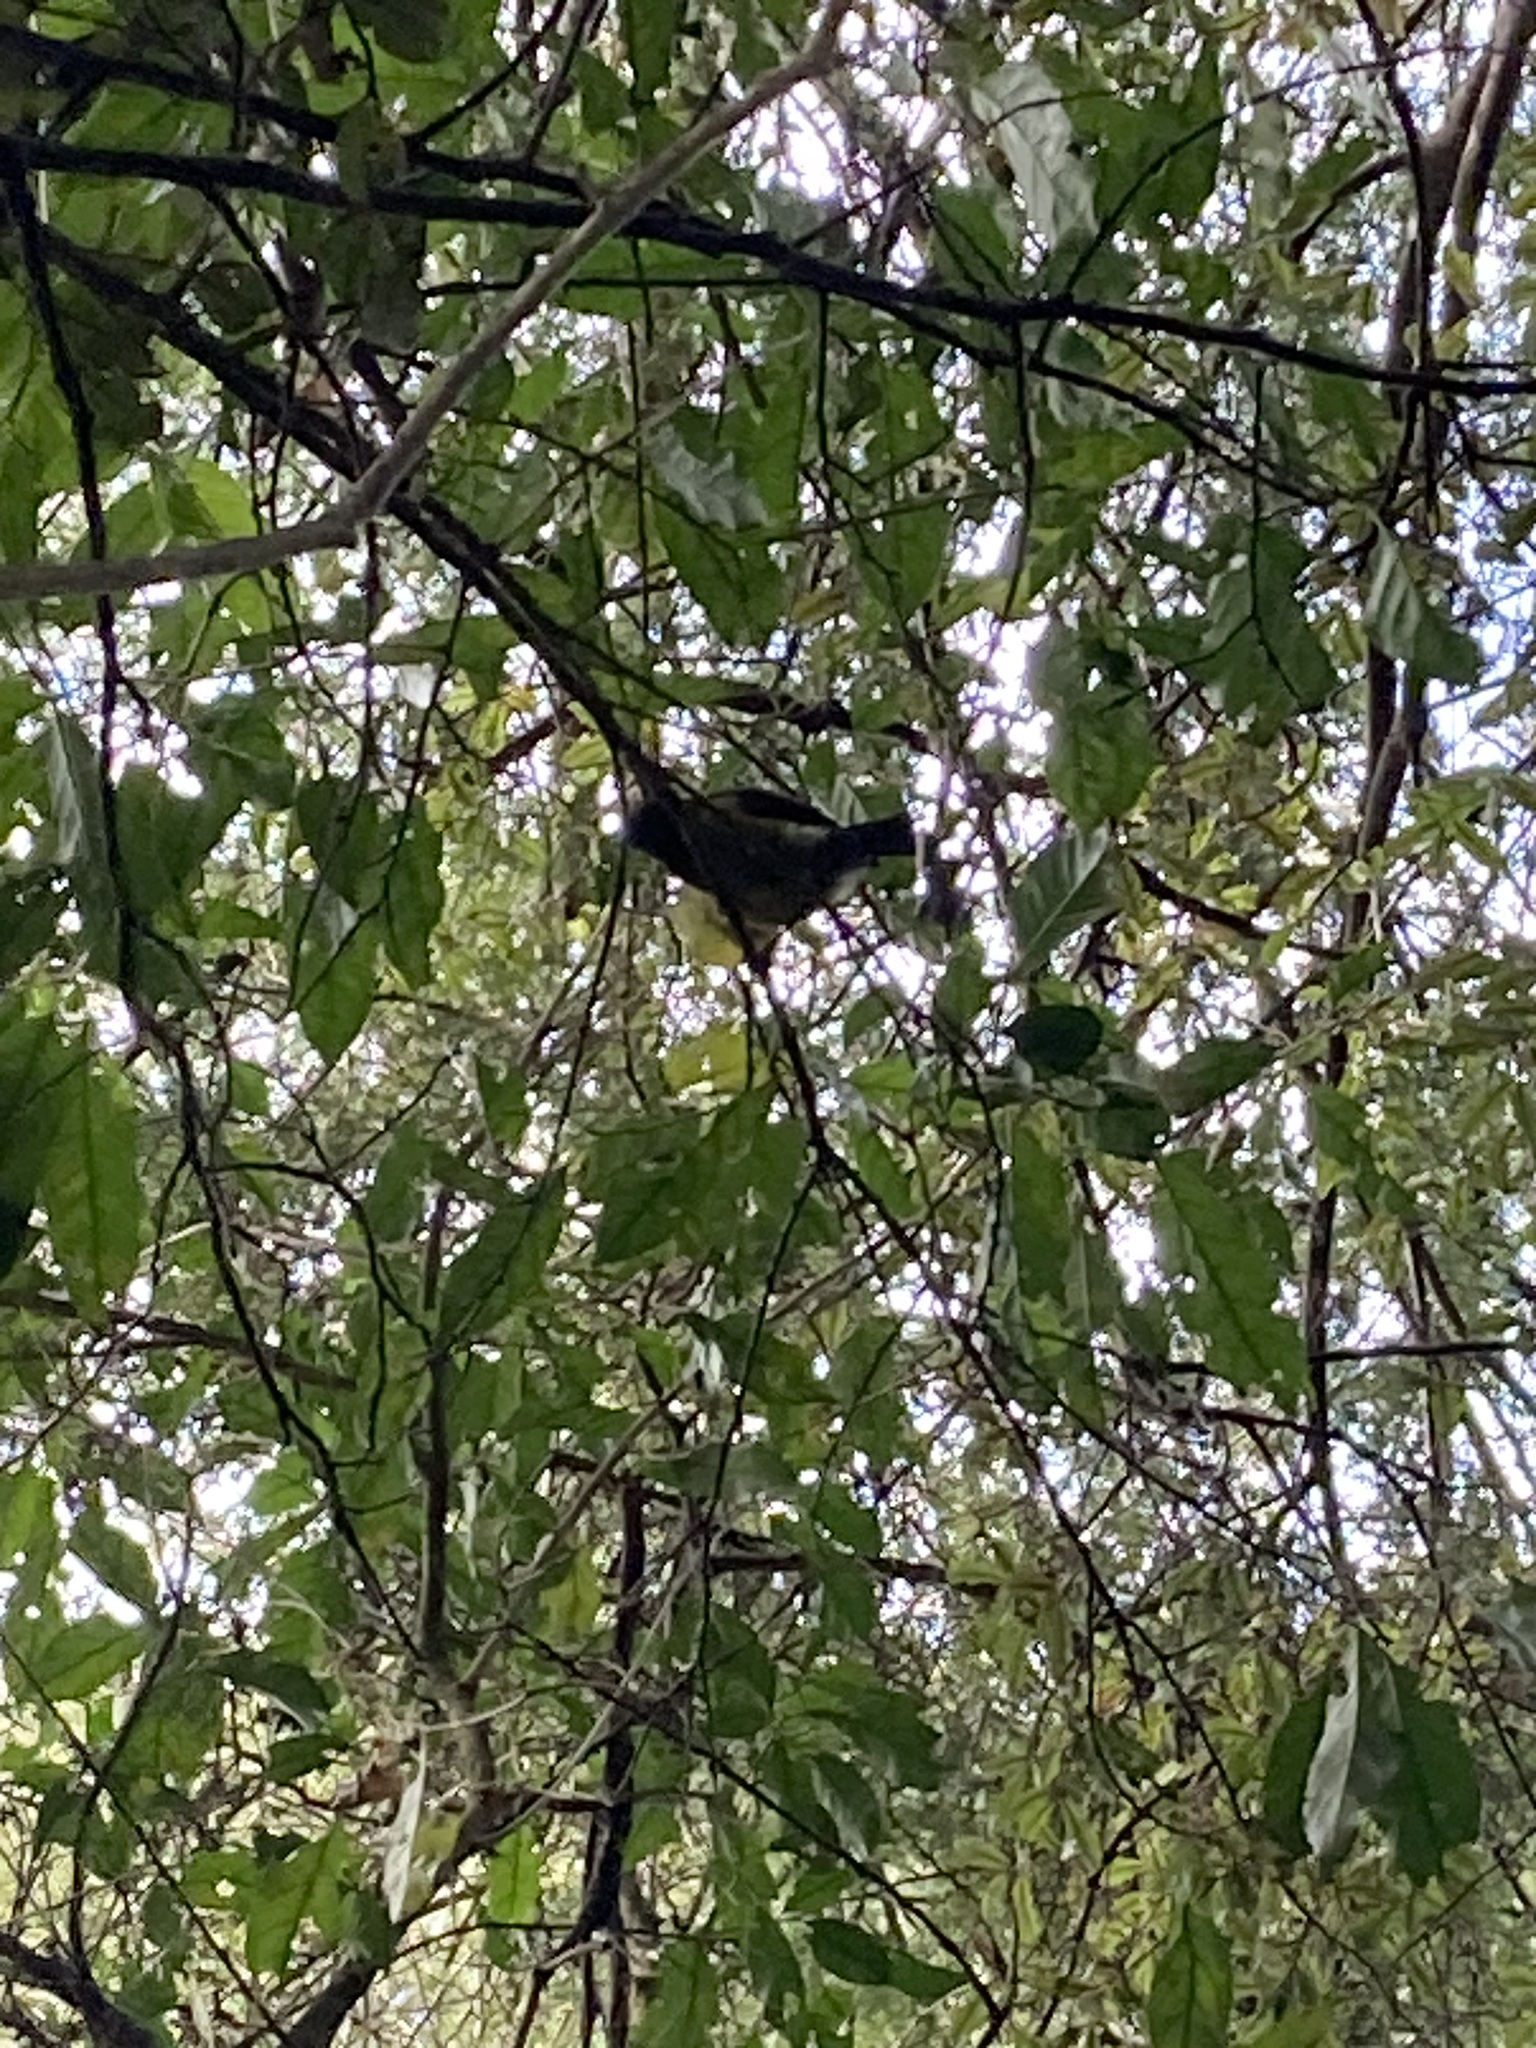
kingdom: Animalia
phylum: Chordata
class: Aves
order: Passeriformes
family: Meliphagidae
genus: Anthornis
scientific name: Anthornis melanura
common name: New zealand bellbird
